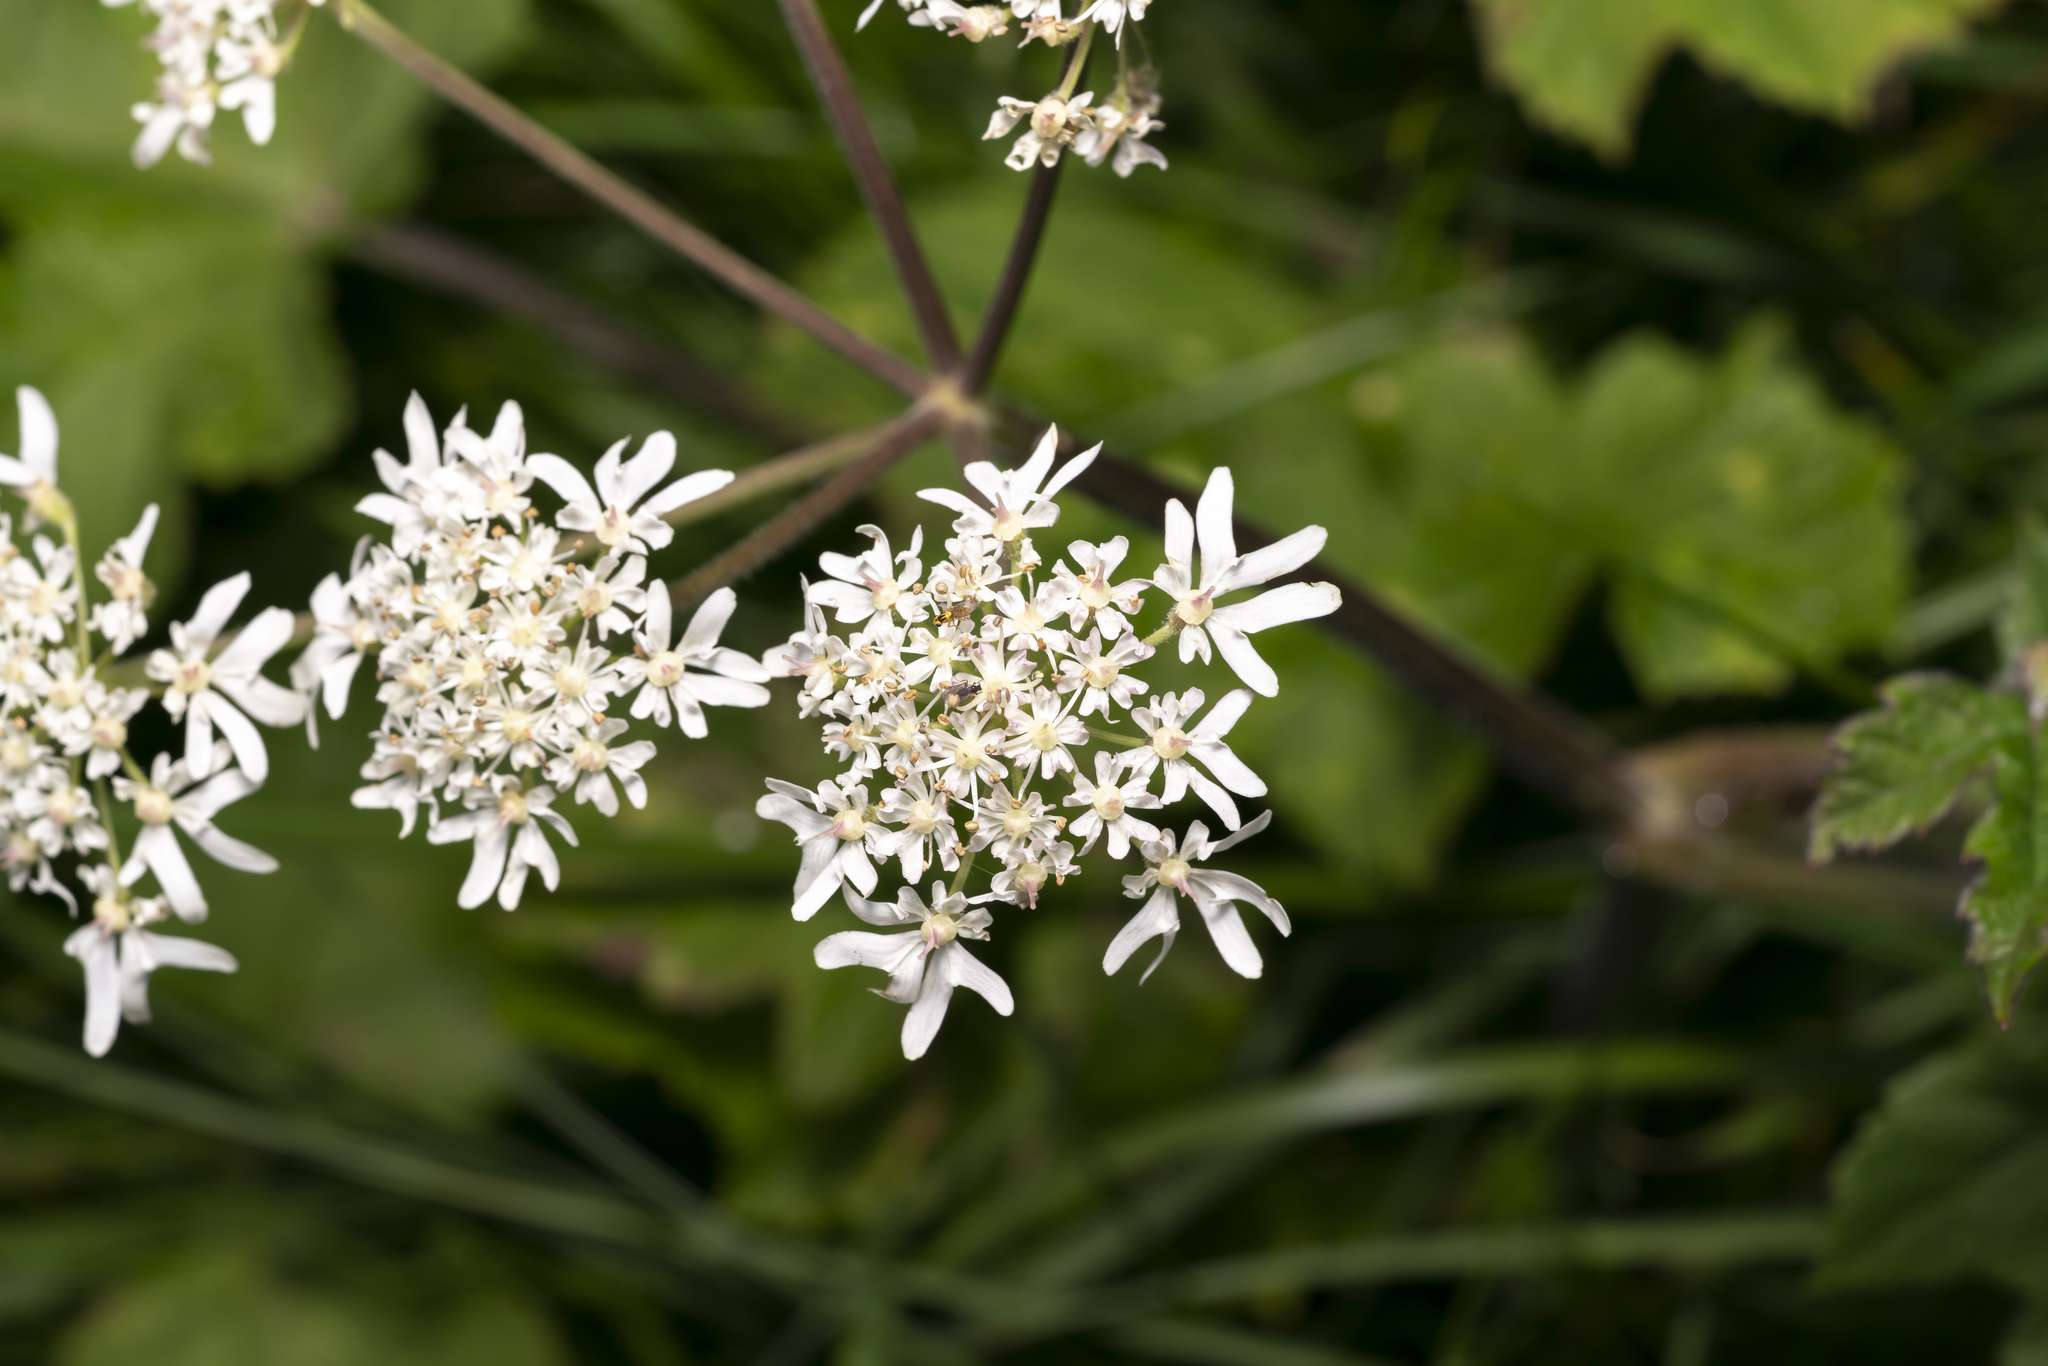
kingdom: Plantae
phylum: Tracheophyta
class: Magnoliopsida
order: Apiales
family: Apiaceae
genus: Heracleum
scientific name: Heracleum sphondylium
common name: Hogweed
